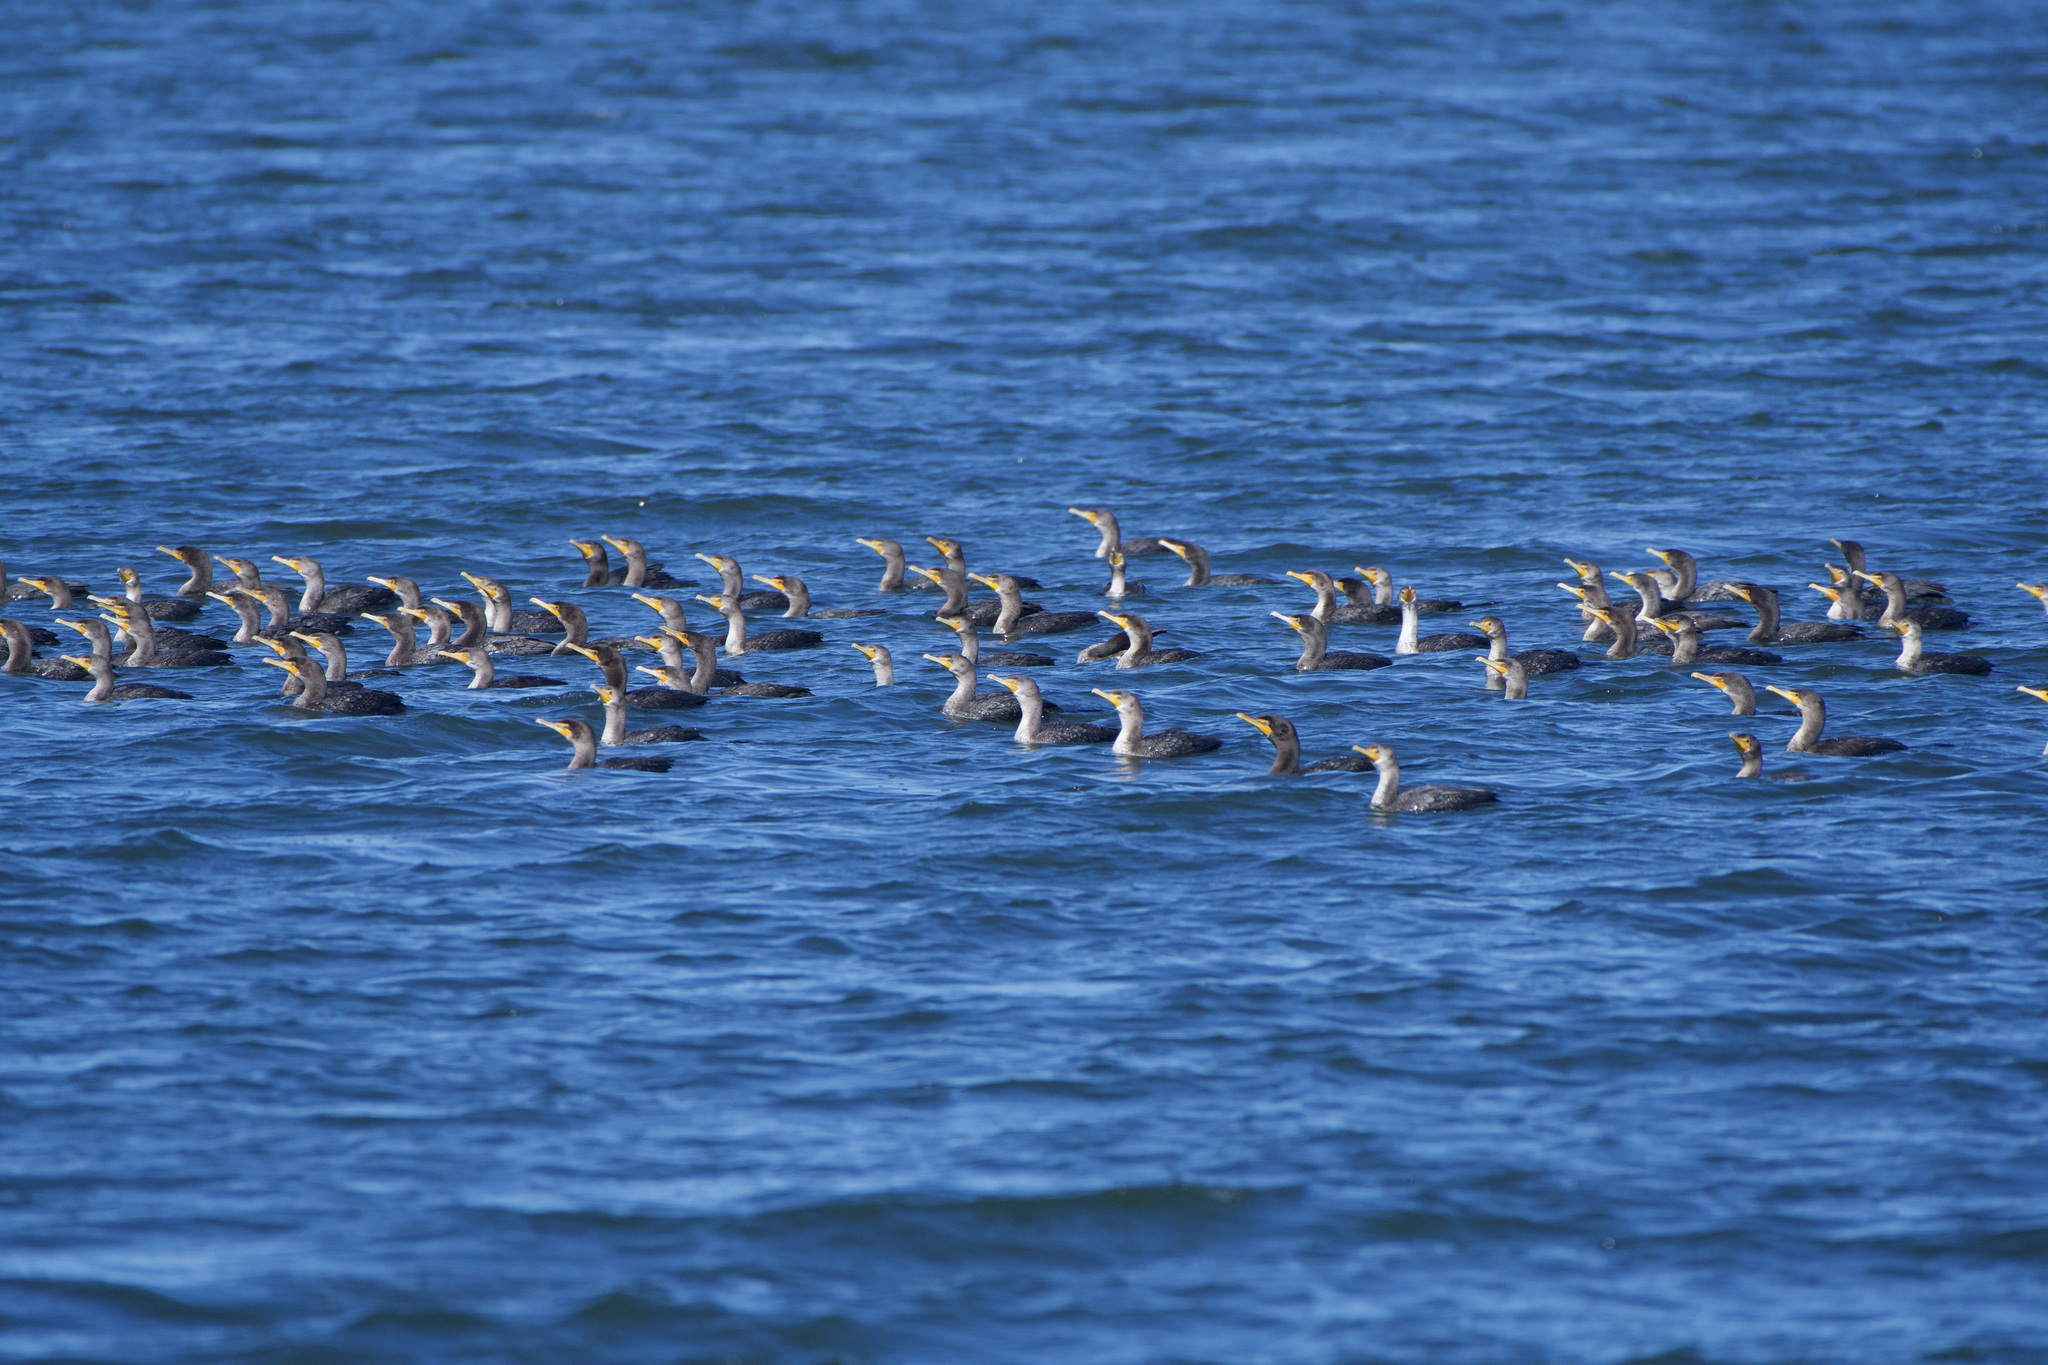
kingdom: Animalia
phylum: Chordata
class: Aves
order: Suliformes
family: Phalacrocoracidae
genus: Phalacrocorax
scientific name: Phalacrocorax auritus
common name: Double-crested cormorant
